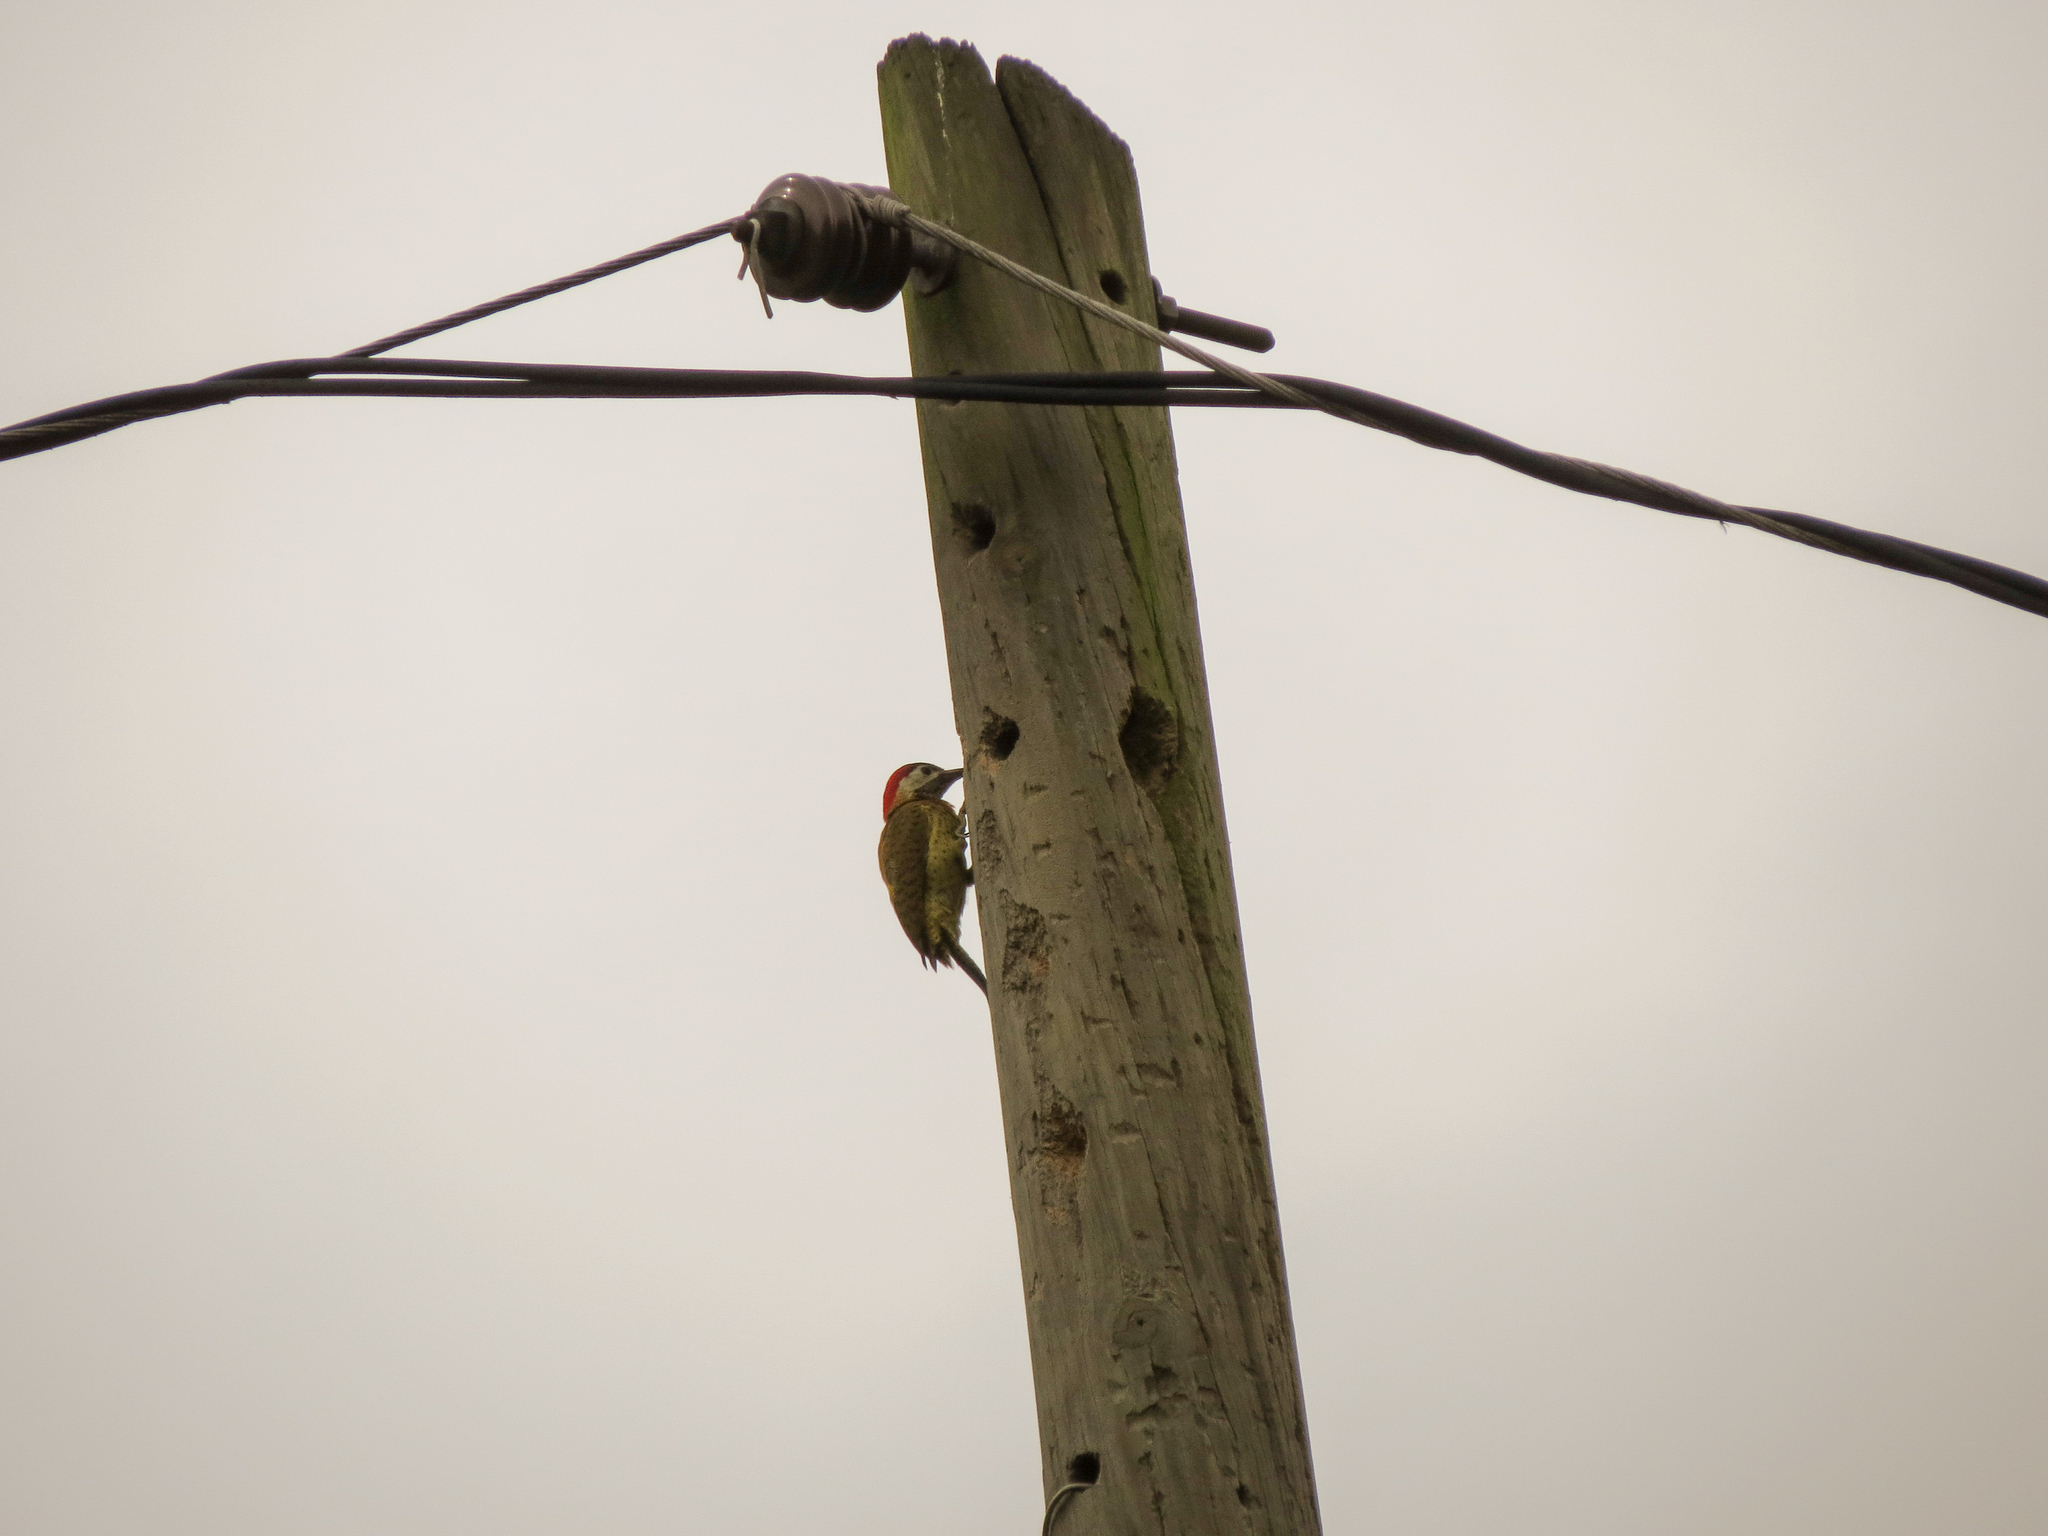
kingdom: Animalia
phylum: Chordata
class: Aves
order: Piciformes
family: Picidae
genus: Colaptes
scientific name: Colaptes punctigula
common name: Spot-breasted woodpecker
